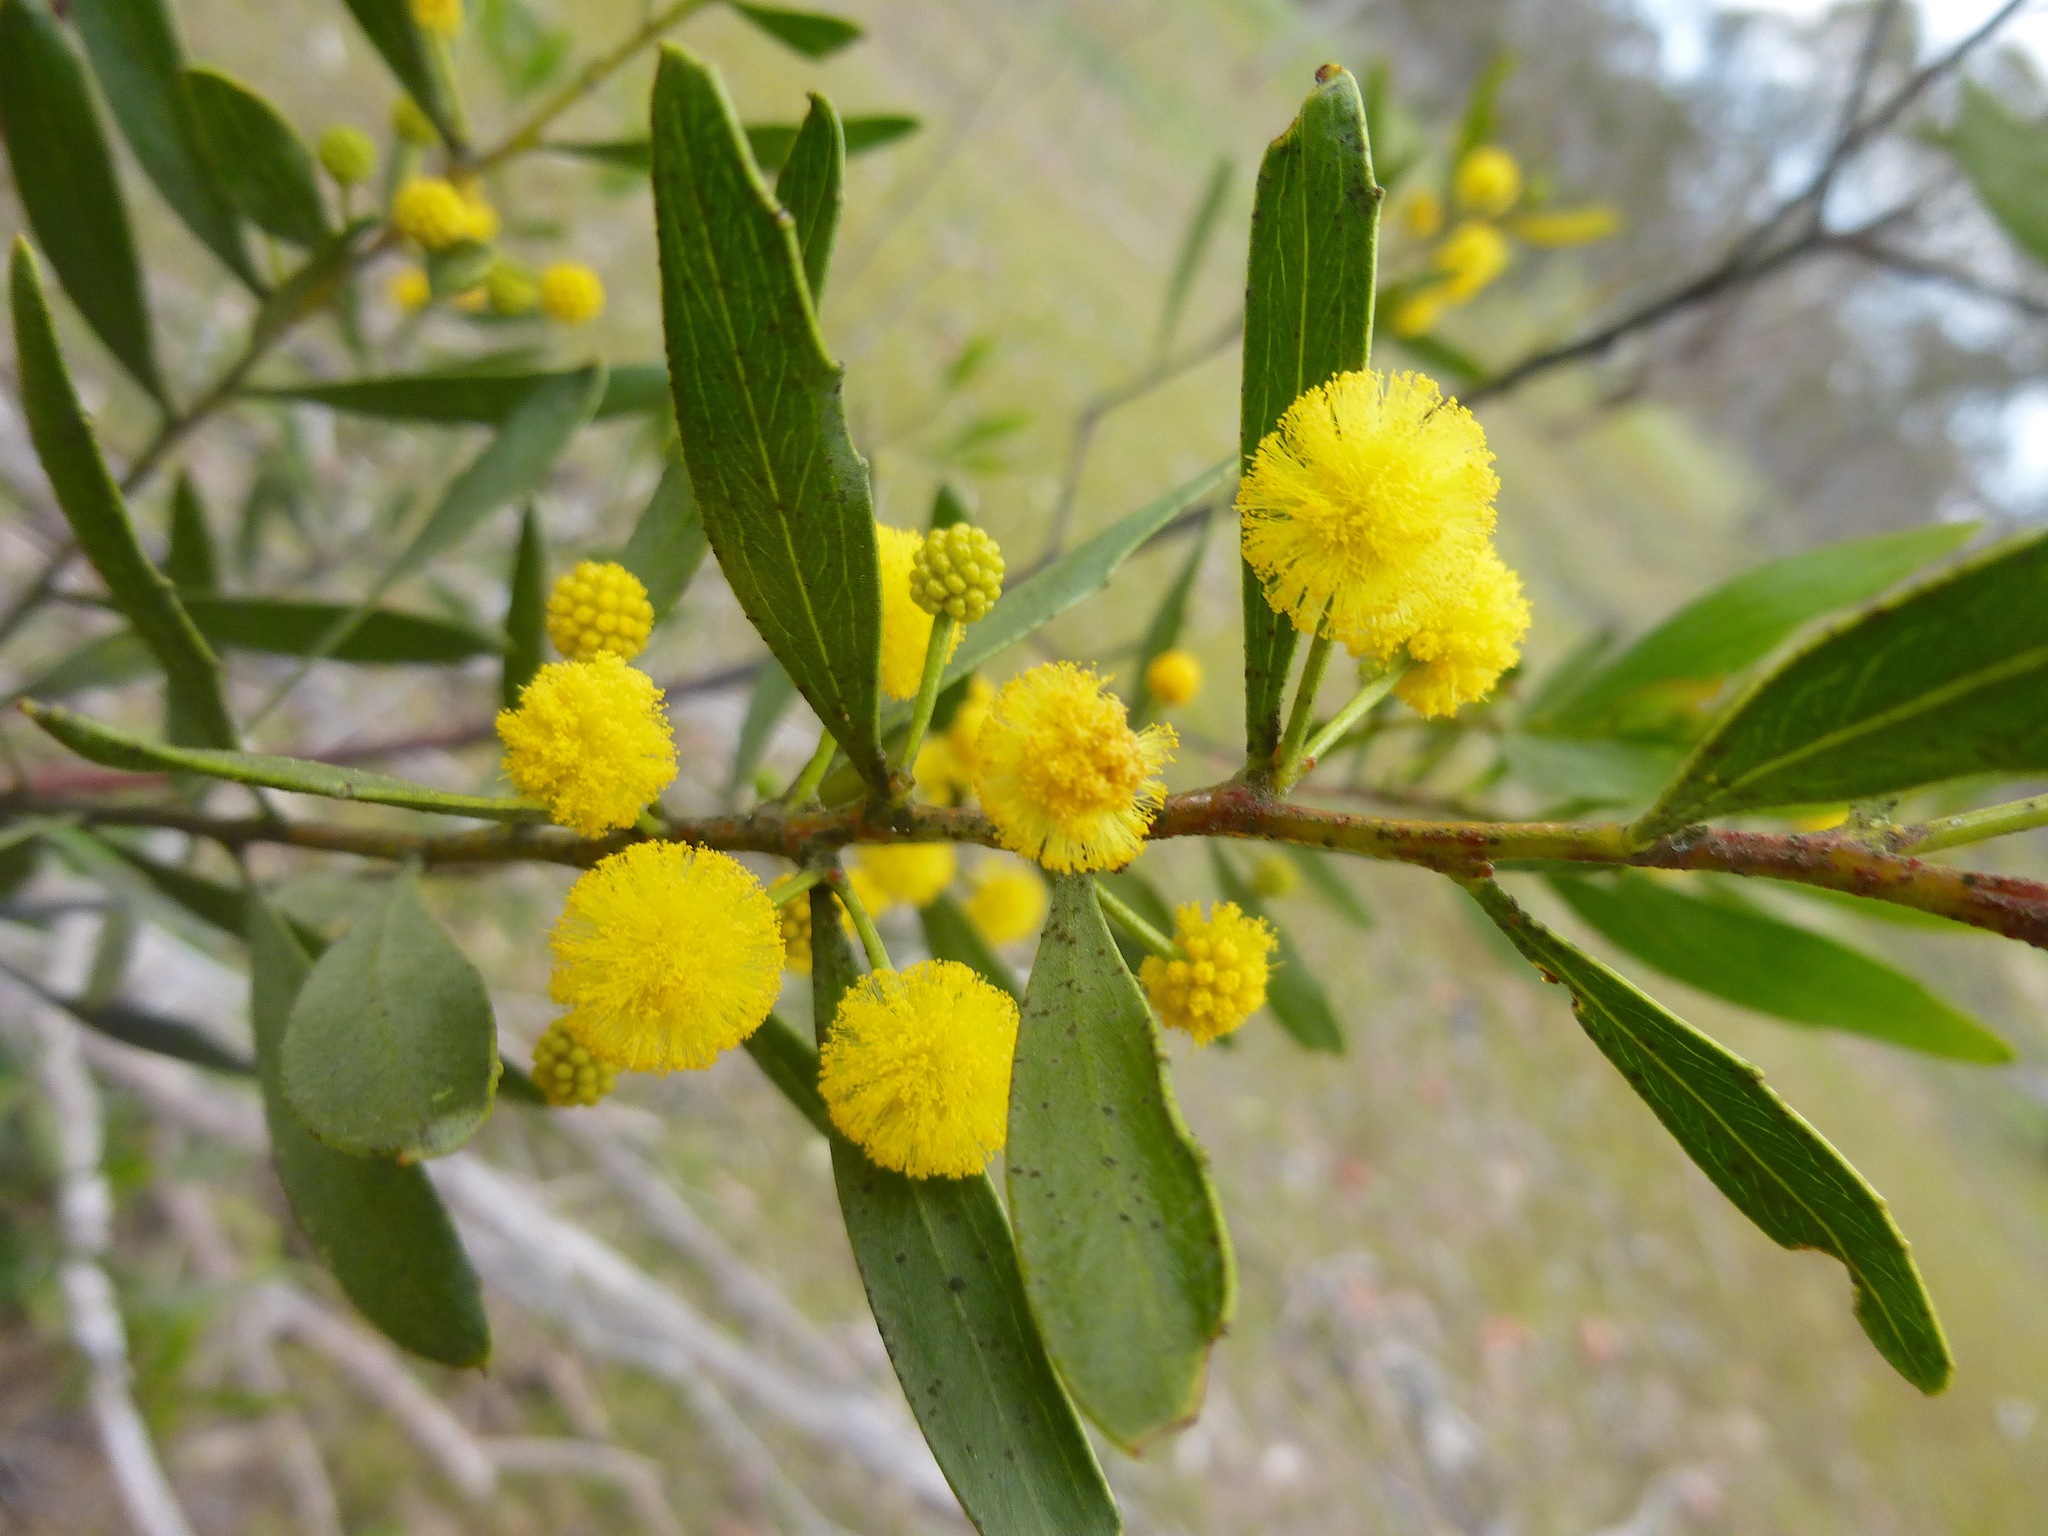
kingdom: Plantae
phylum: Tracheophyta
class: Magnoliopsida
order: Fabales
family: Fabaceae
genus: Acacia
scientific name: Acacia pycnantha
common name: Golden wattle
